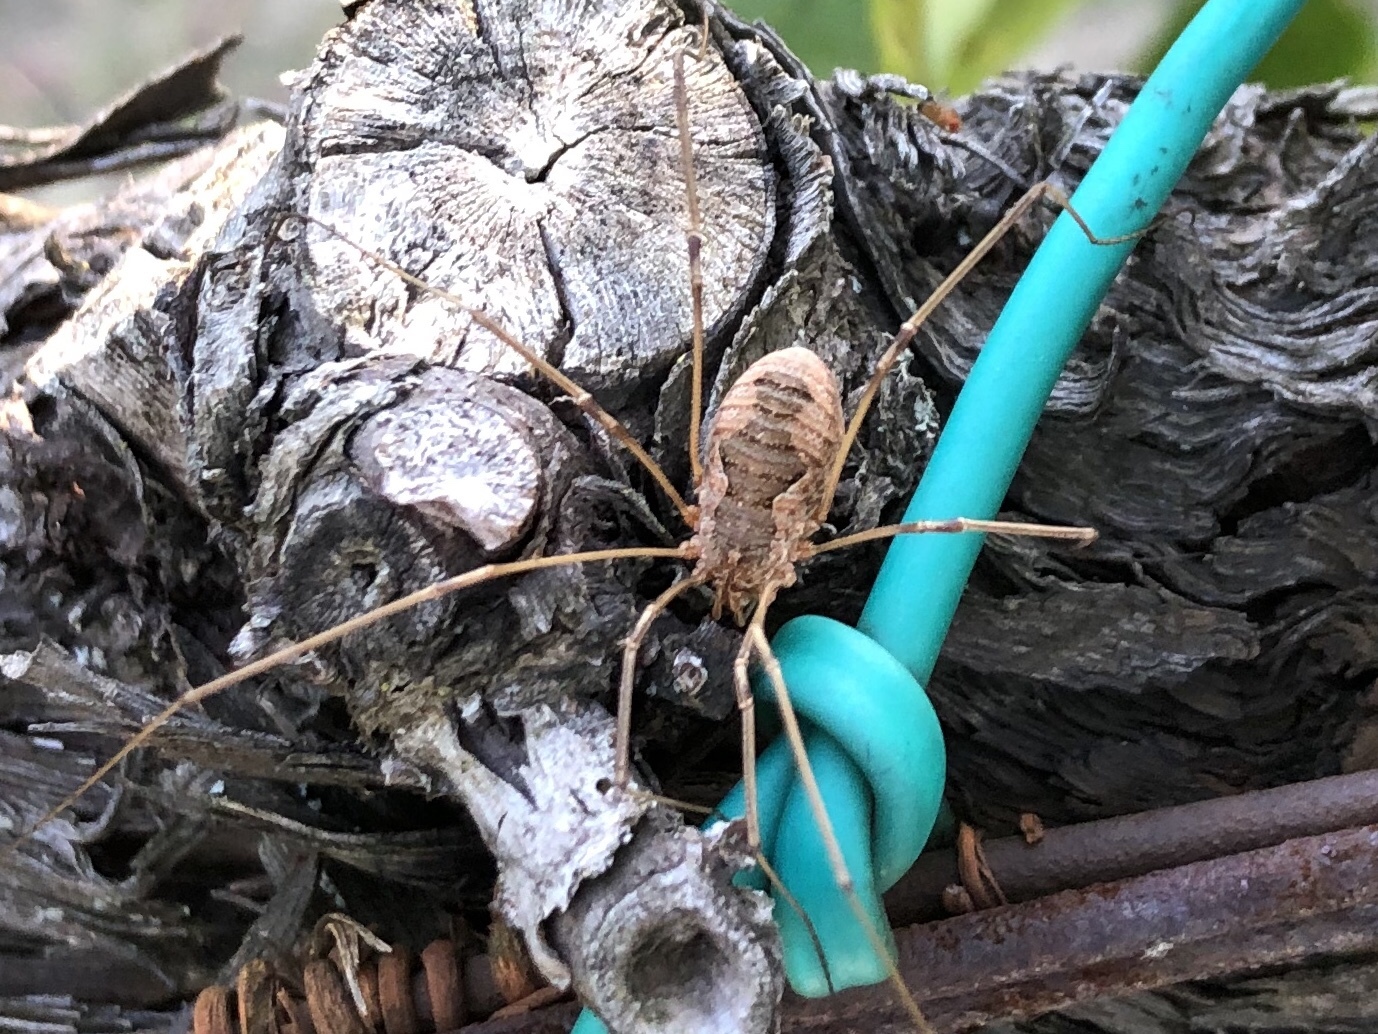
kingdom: Animalia
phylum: Arthropoda
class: Arachnida
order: Opiliones
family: Phalangiidae
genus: Phalangium
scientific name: Phalangium opilio
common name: Daddy longleg
